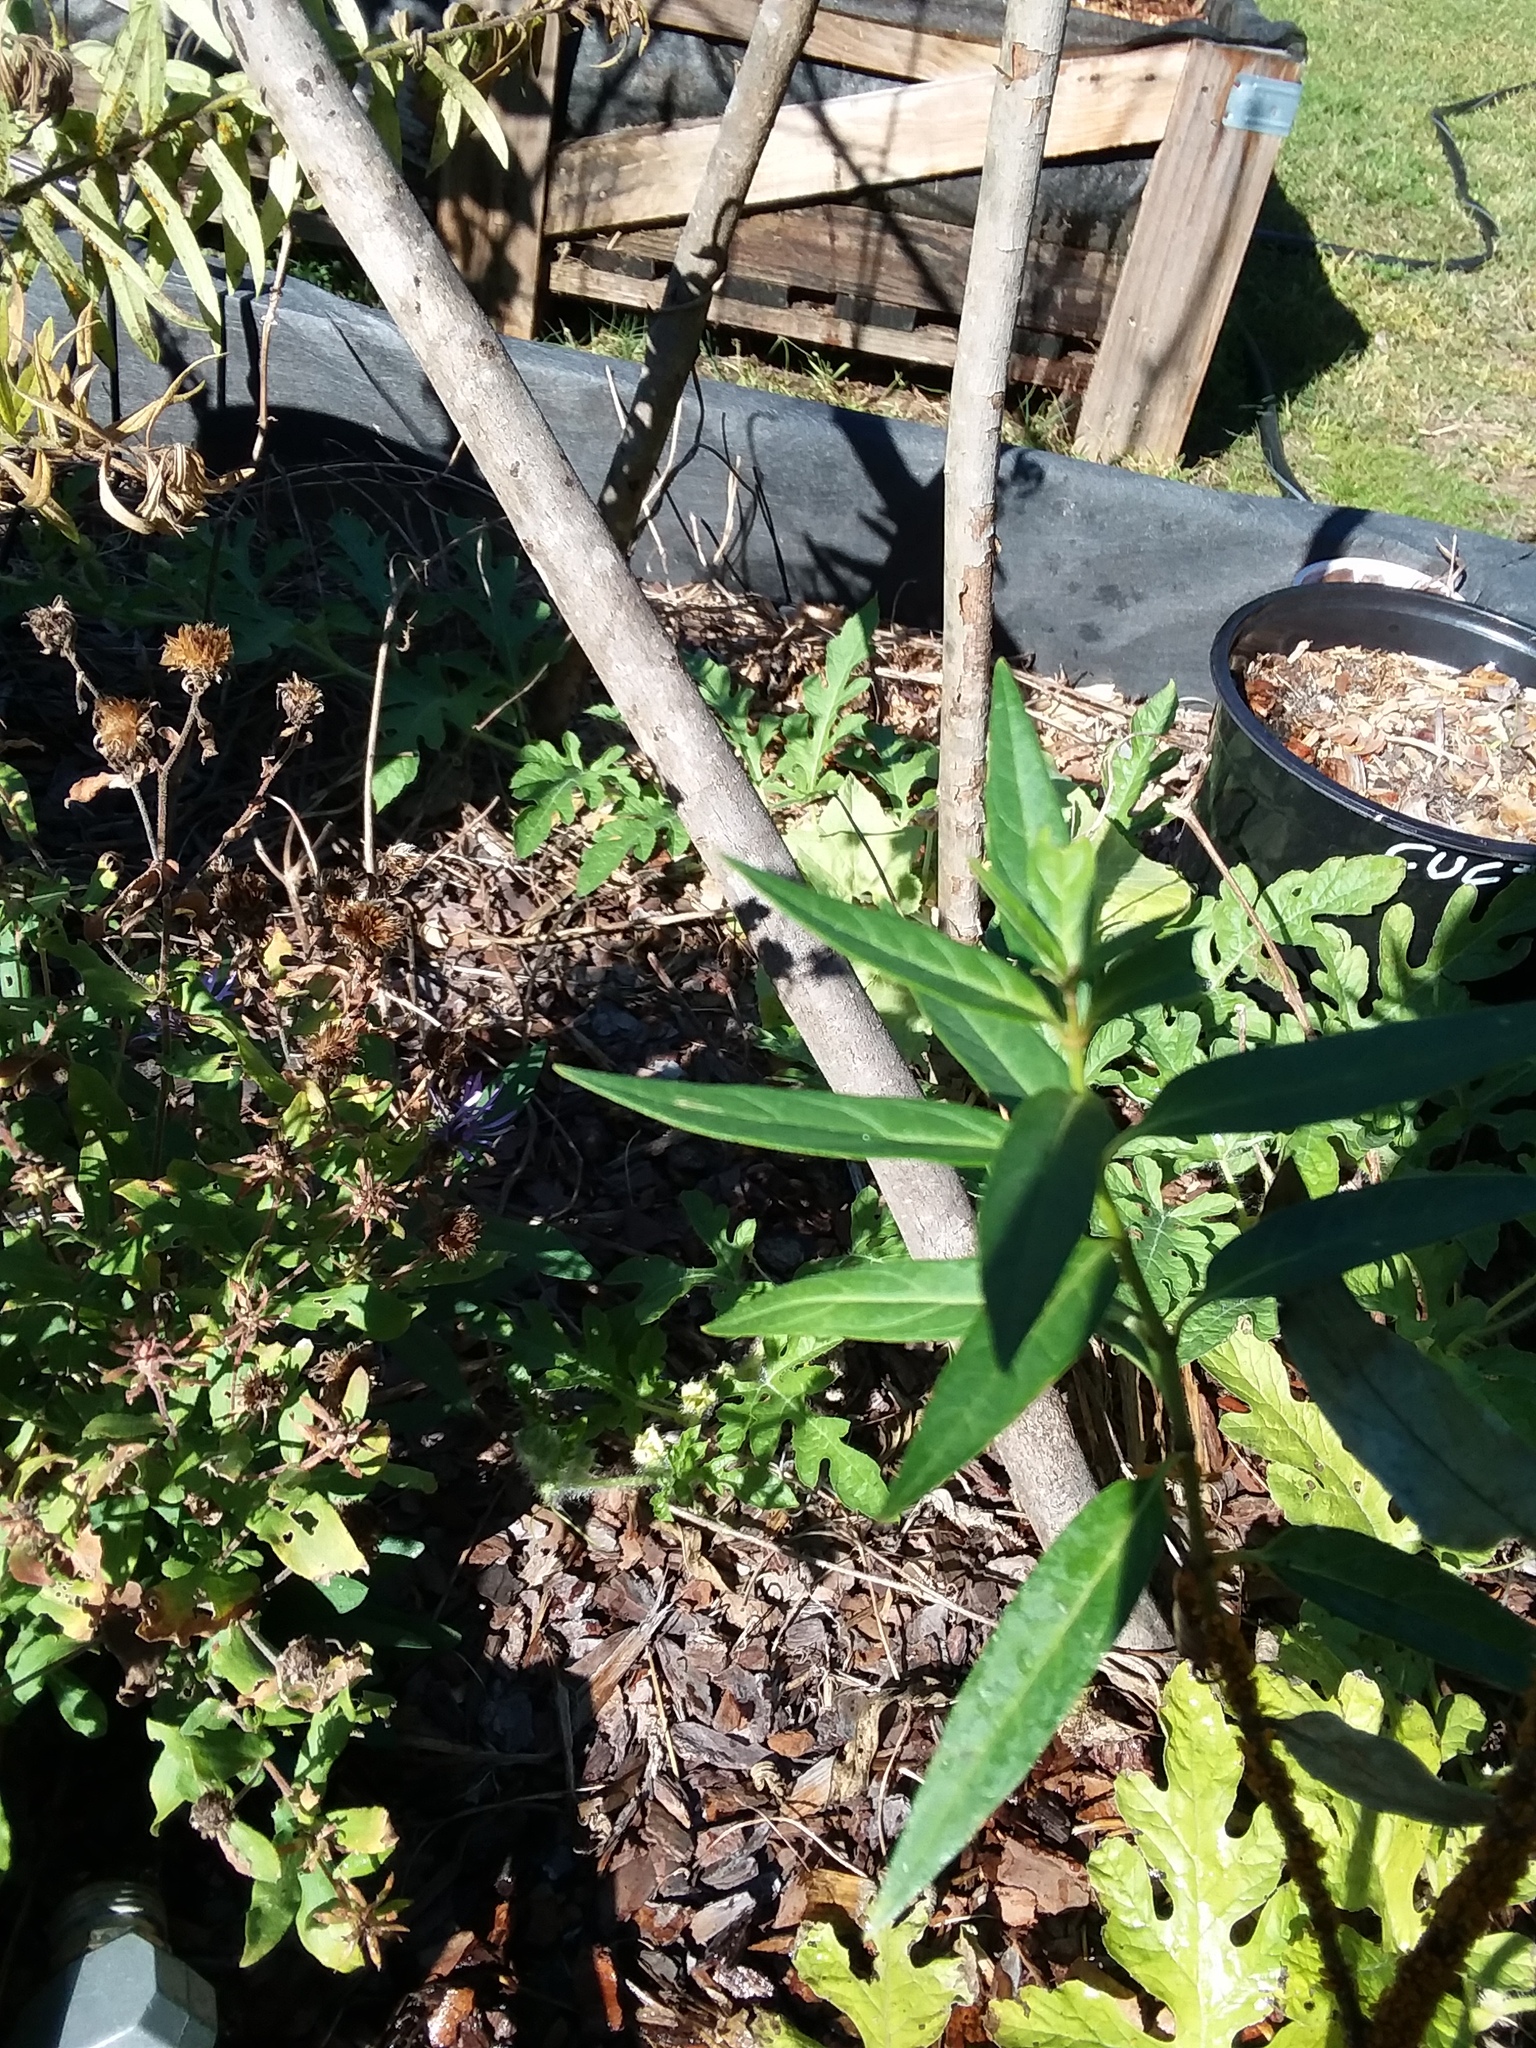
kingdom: Animalia
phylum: Arthropoda
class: Insecta
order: Diptera
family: Syrphidae
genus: Ocyptamus
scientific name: Ocyptamus fuscipennis
